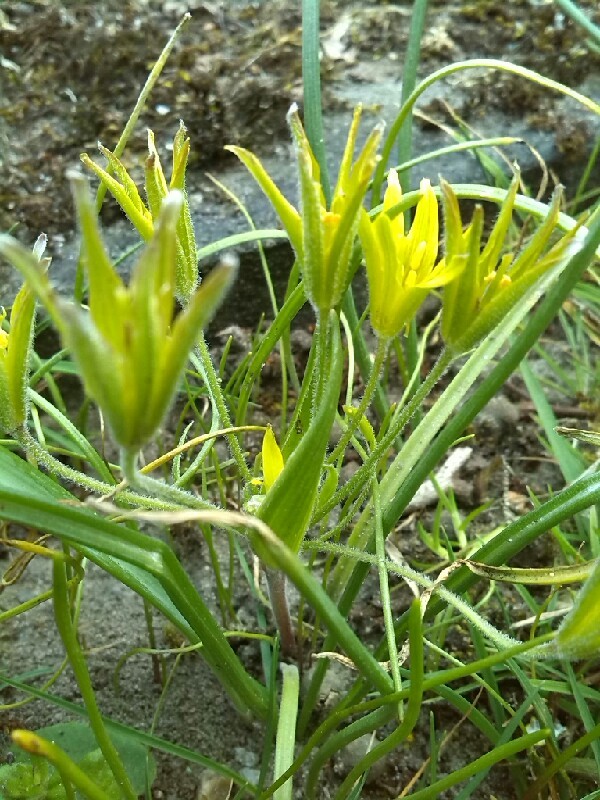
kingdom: Plantae
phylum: Tracheophyta
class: Liliopsida
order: Liliales
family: Liliaceae
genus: Gagea
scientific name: Gagea villosa
